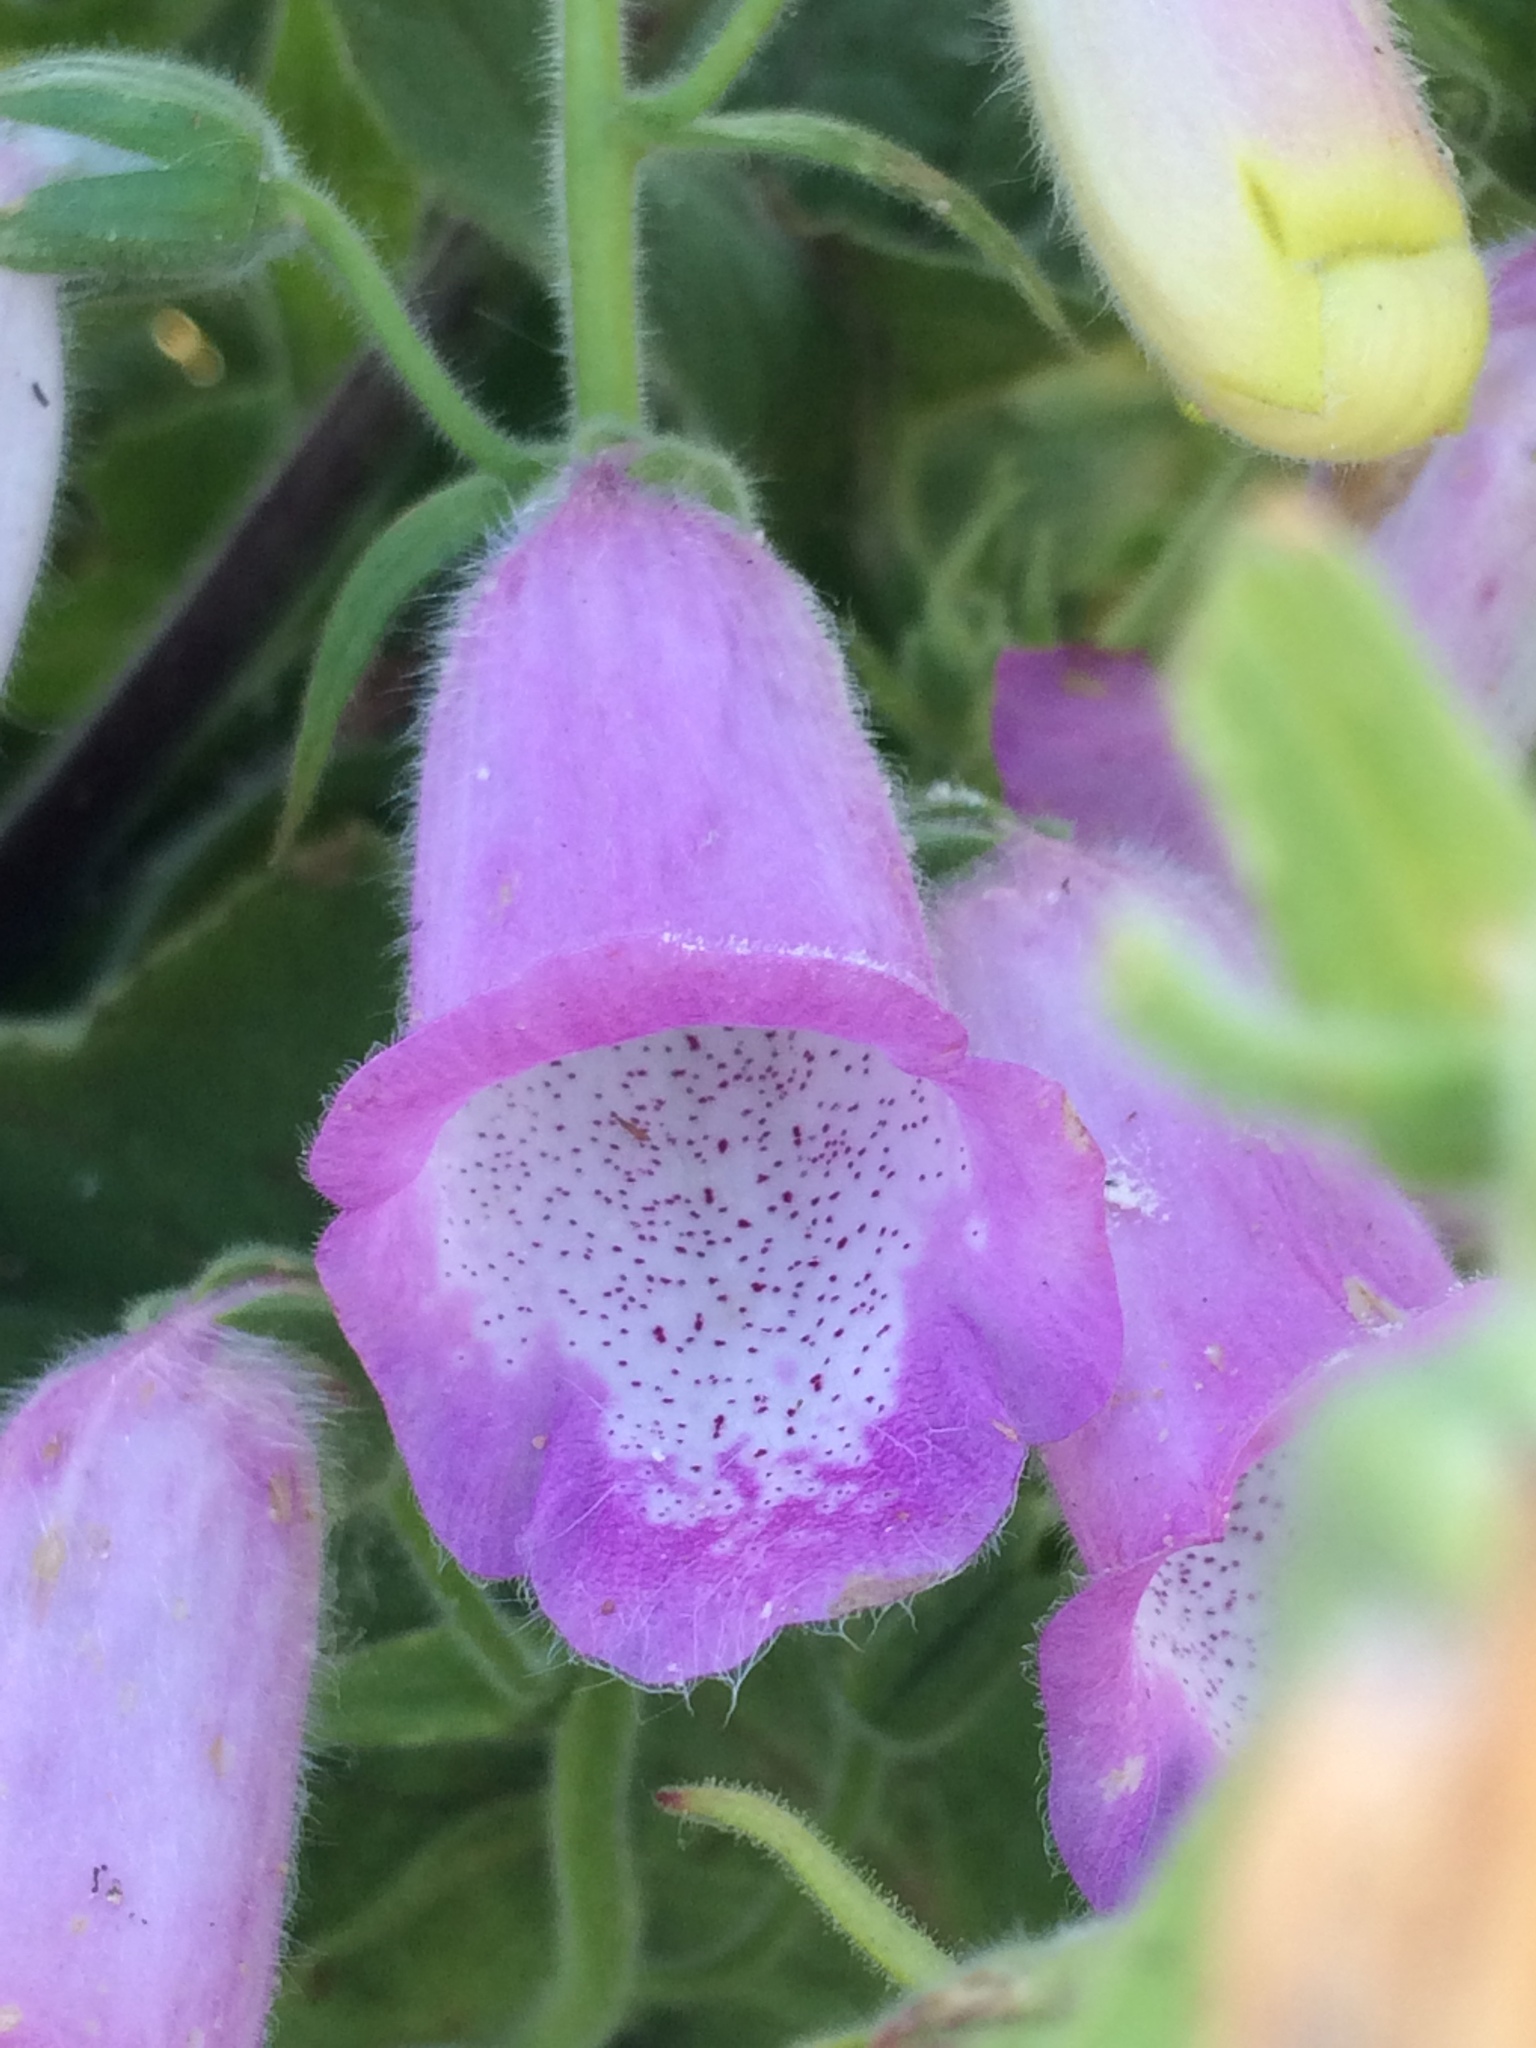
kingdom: Plantae
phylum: Tracheophyta
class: Magnoliopsida
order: Lamiales
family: Plantaginaceae
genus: Digitalis
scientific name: Digitalis thapsi
